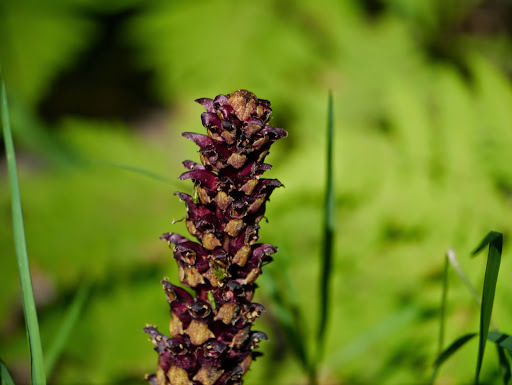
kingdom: Plantae
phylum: Tracheophyta
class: Magnoliopsida
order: Lamiales
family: Orobanchaceae
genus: Boschniakia
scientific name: Boschniakia rossica
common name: Poque
